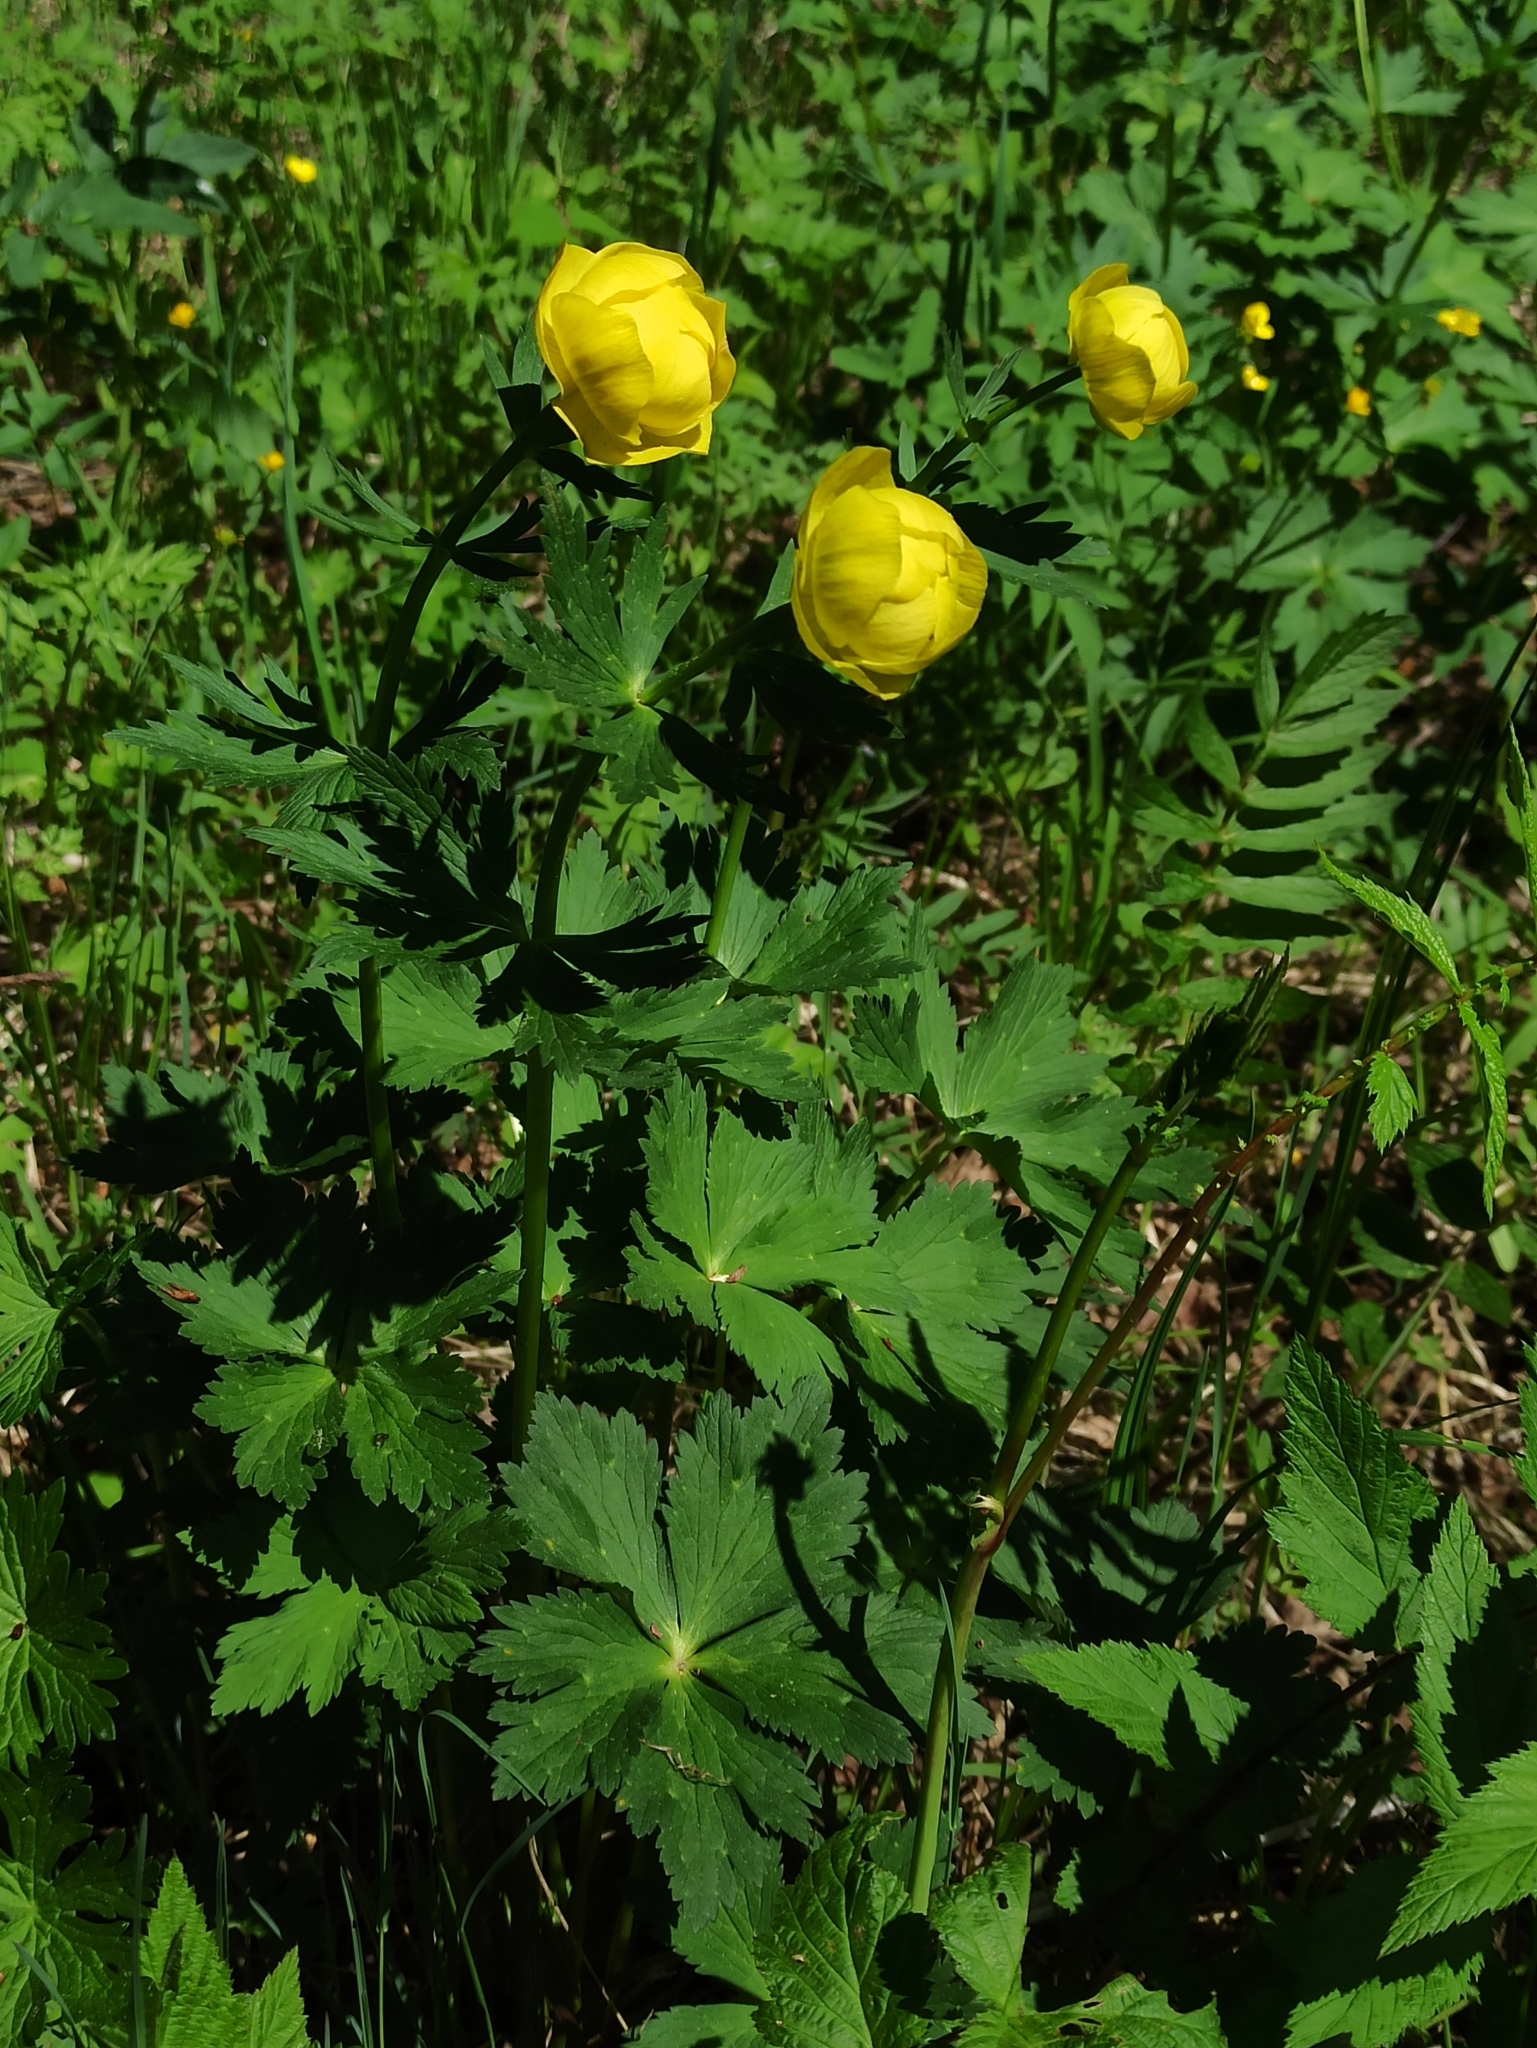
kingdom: Plantae
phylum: Tracheophyta
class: Magnoliopsida
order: Ranunculales
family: Ranunculaceae
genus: Trollius
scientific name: Trollius europaeus
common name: European globeflower
